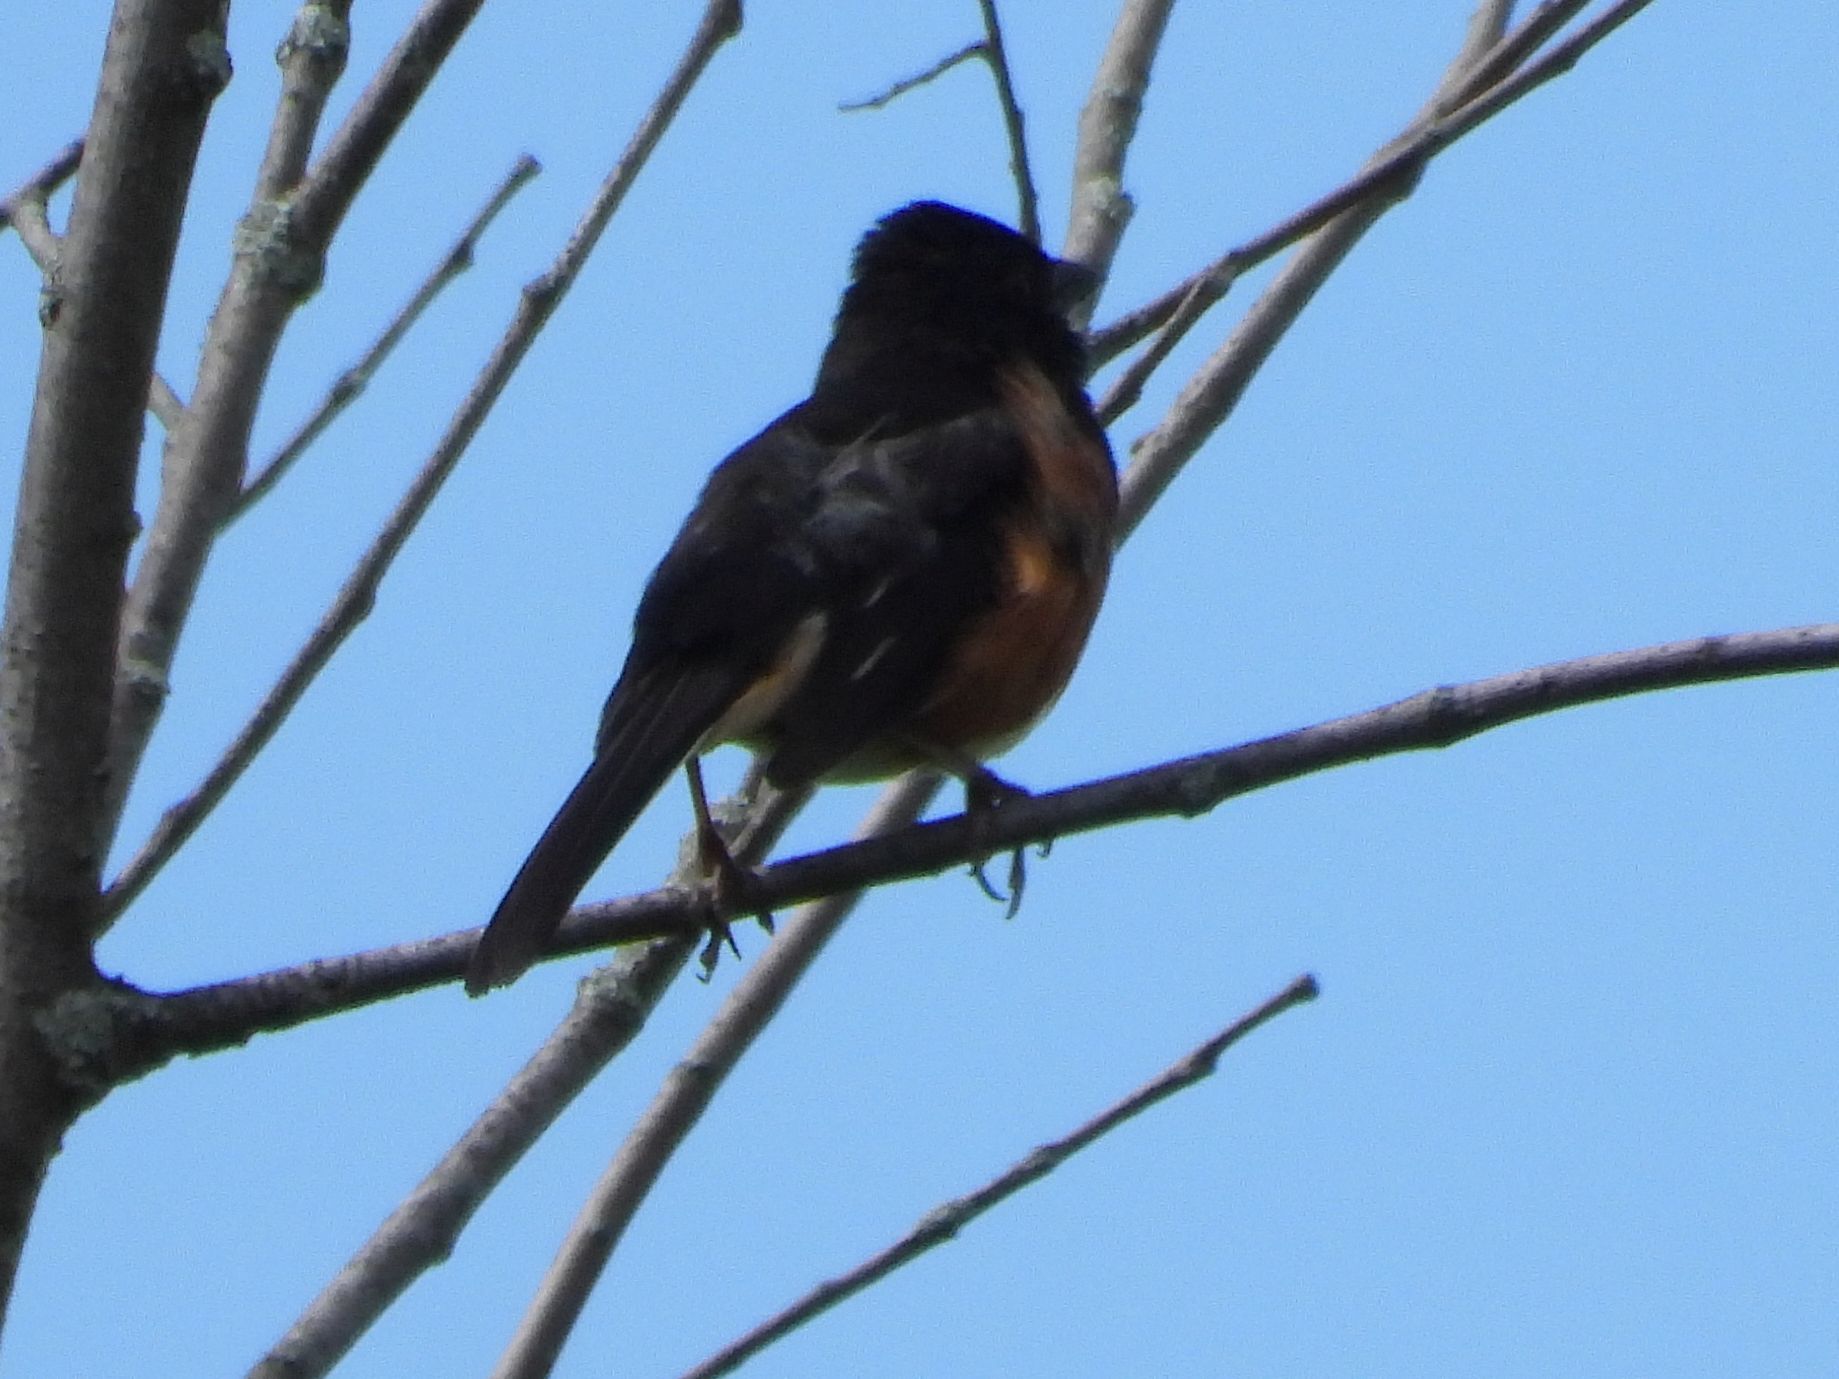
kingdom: Animalia
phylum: Chordata
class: Aves
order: Passeriformes
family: Passerellidae
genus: Pipilo
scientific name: Pipilo erythrophthalmus
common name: Eastern towhee
